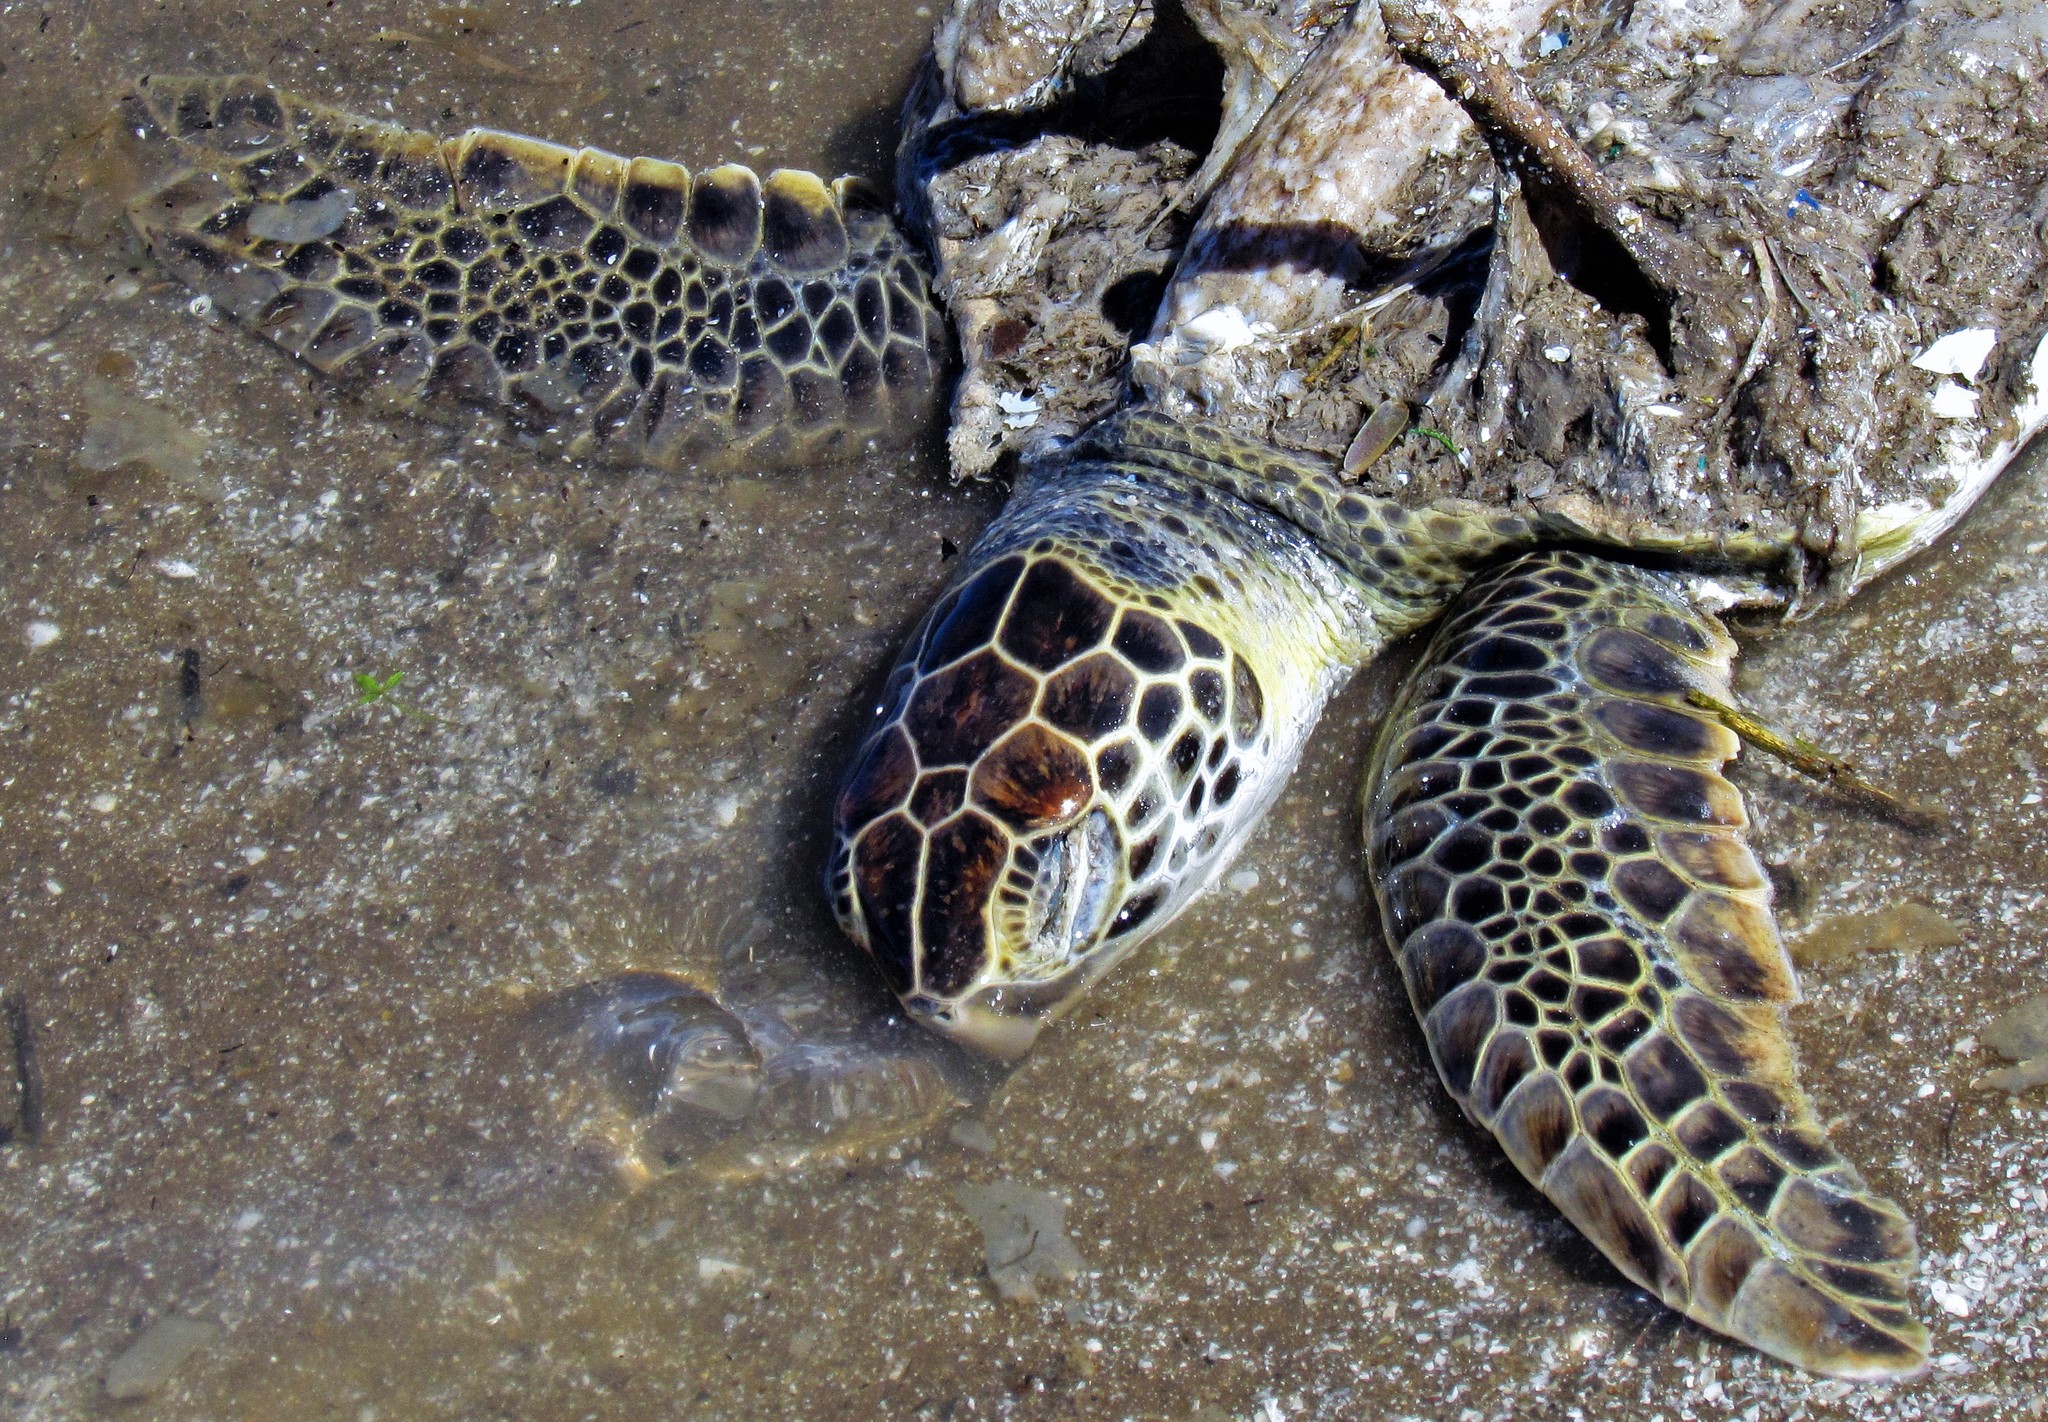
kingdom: Animalia
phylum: Chordata
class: Testudines
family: Cheloniidae
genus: Chelonia
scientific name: Chelonia mydas
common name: Green turtle
